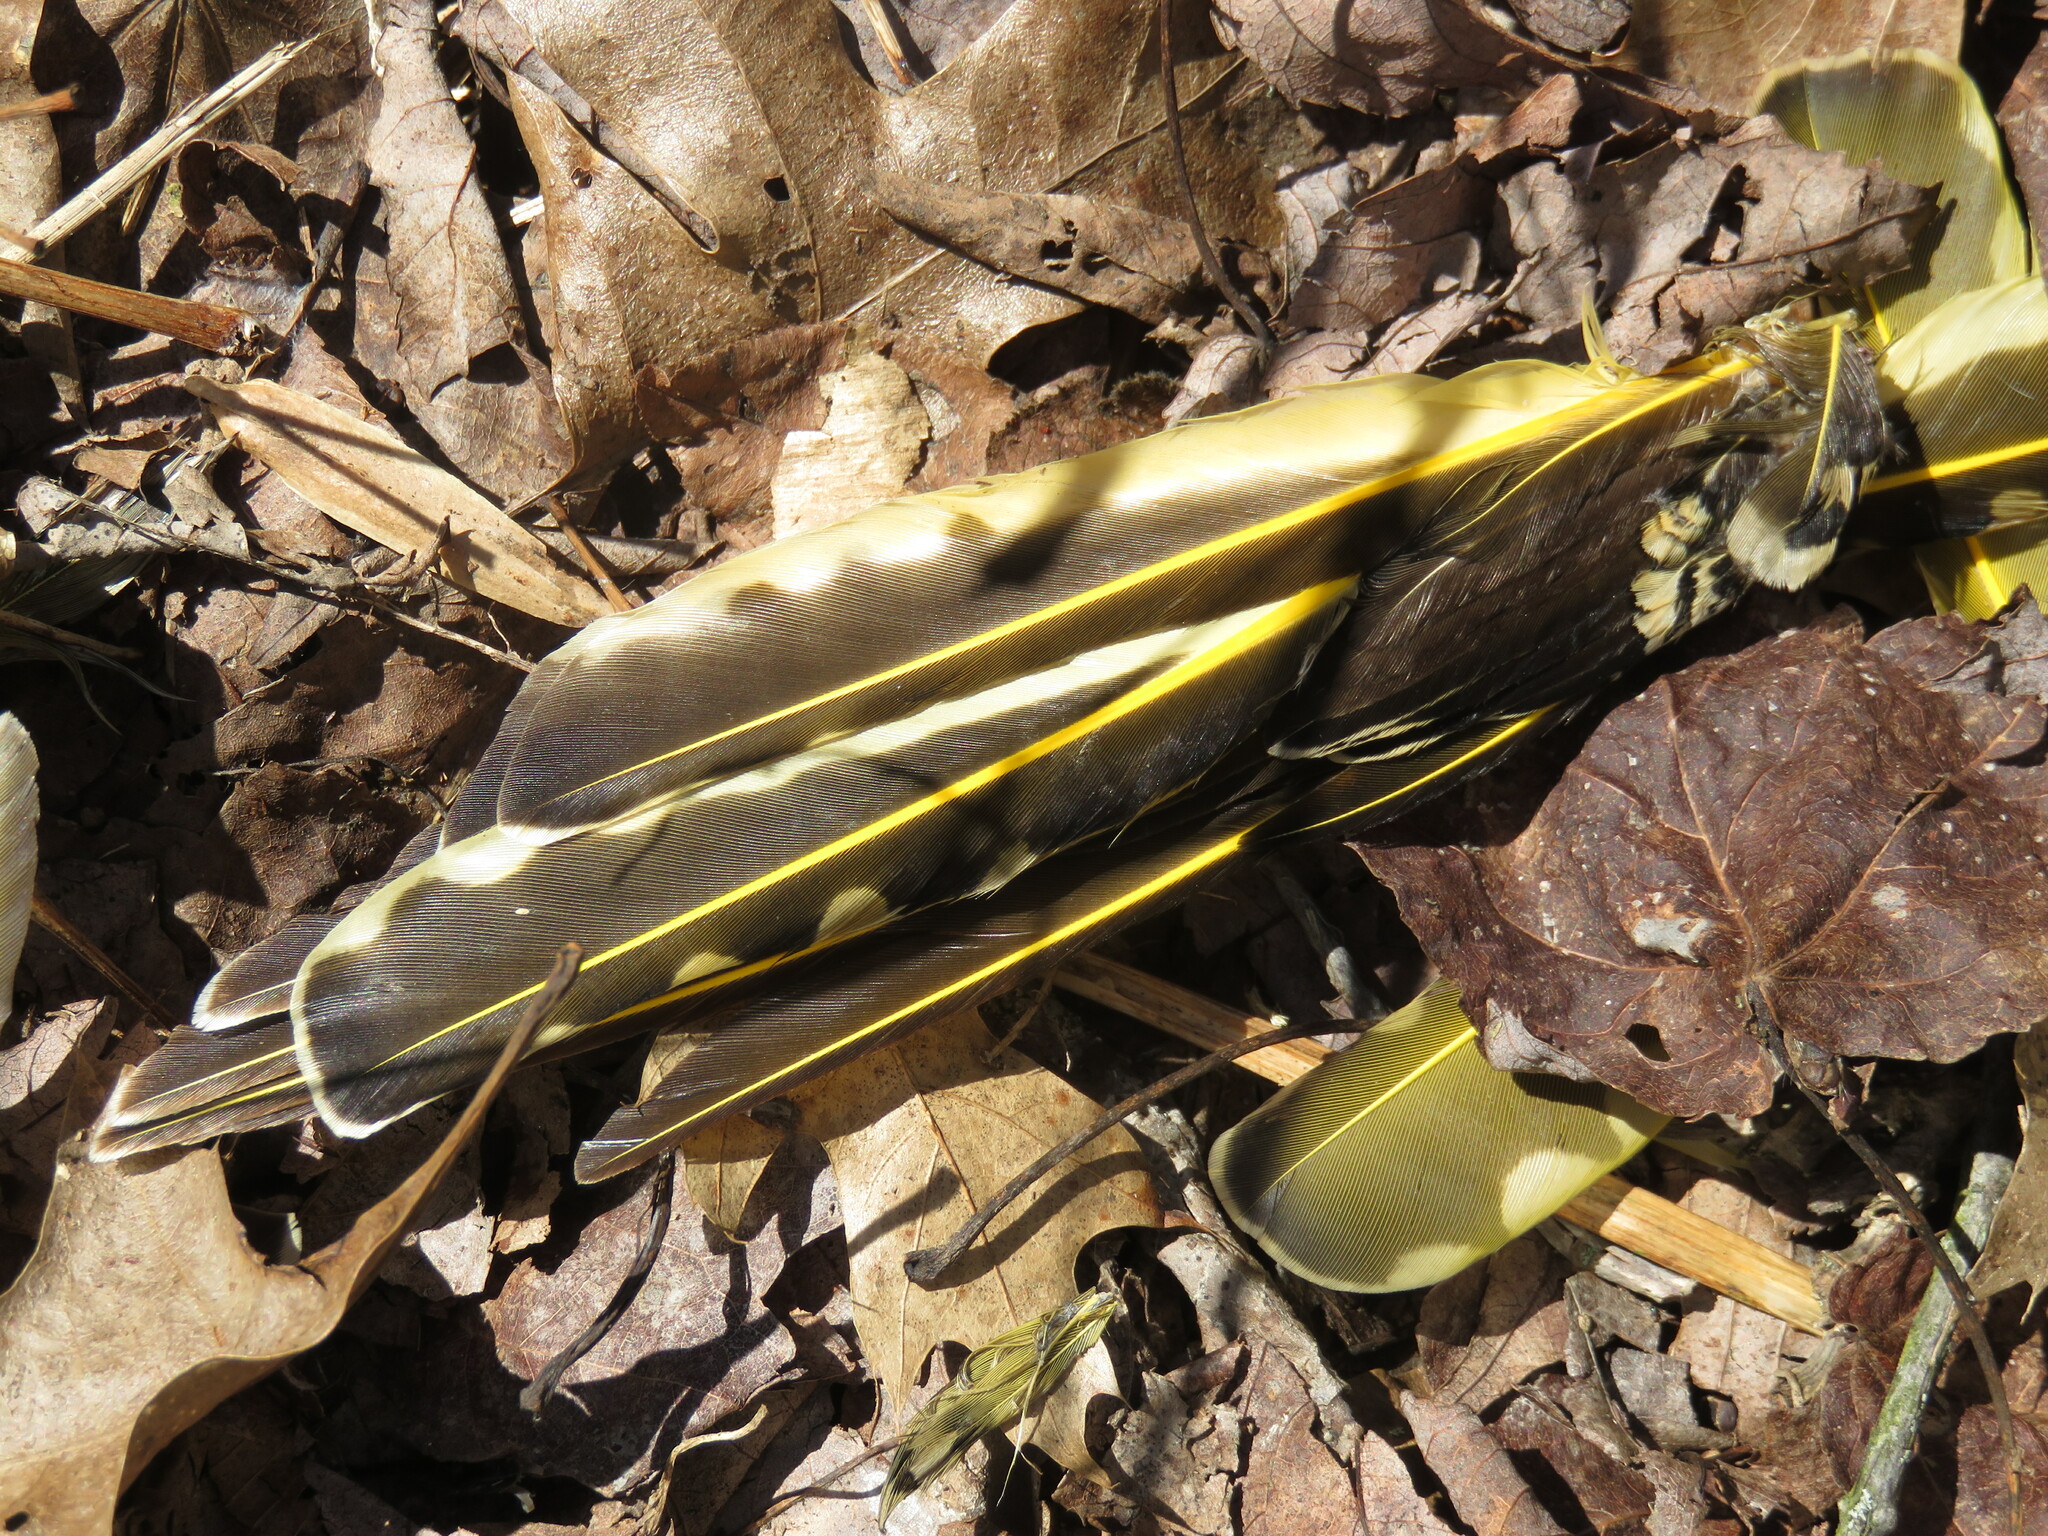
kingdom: Animalia
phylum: Chordata
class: Aves
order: Piciformes
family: Picidae
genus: Colaptes
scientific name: Colaptes auratus
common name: Northern flicker
